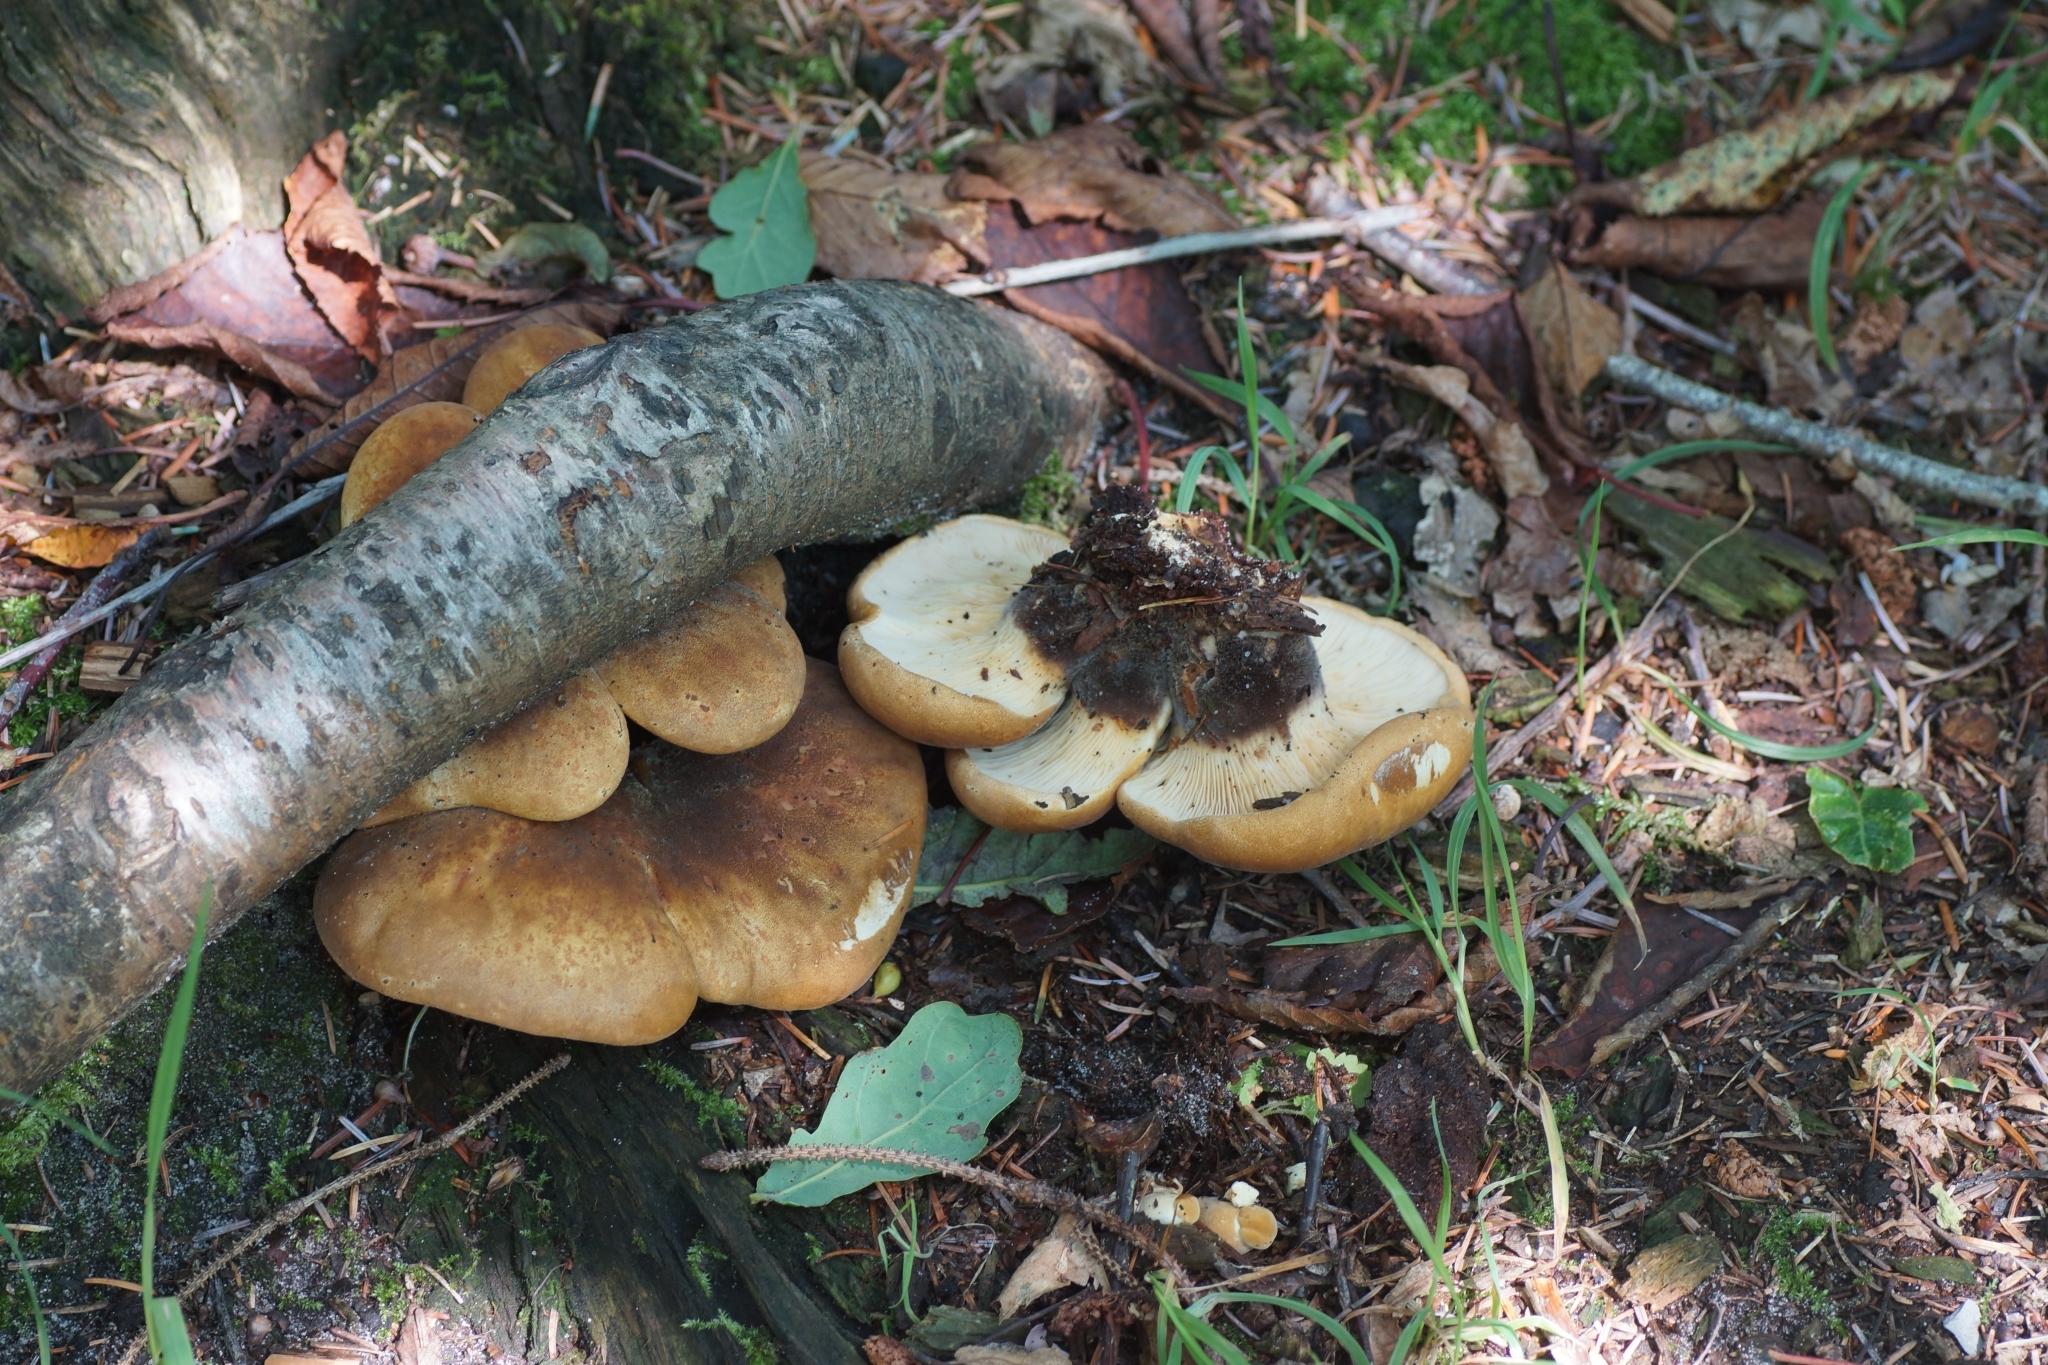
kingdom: Fungi
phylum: Basidiomycota
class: Agaricomycetes
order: Boletales
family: Tapinellaceae
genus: Tapinella
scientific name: Tapinella atrotomentosa
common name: Velvet rollrim
